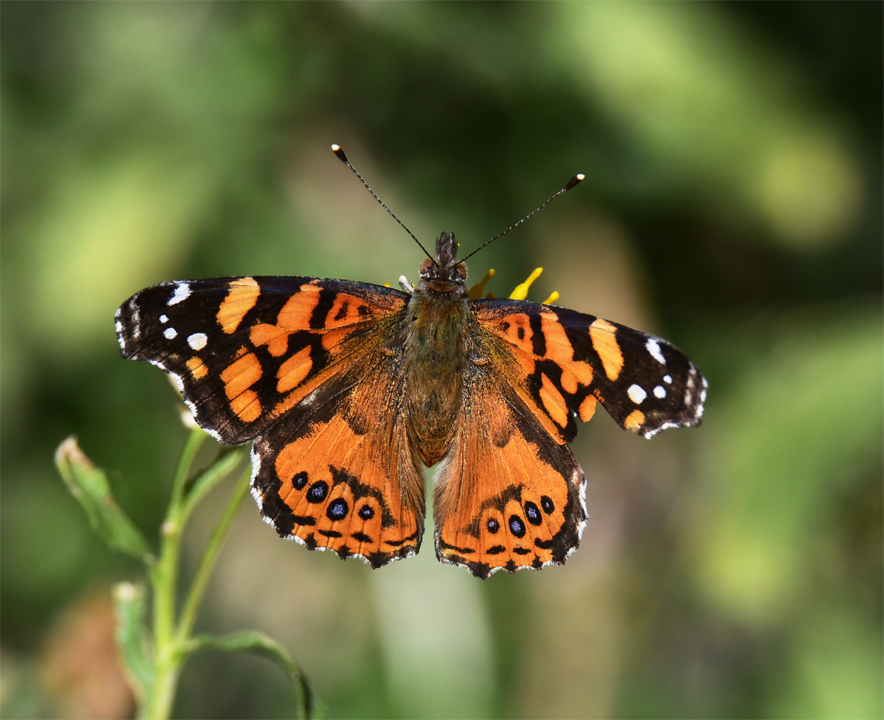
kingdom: Animalia
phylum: Arthropoda
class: Insecta
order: Lepidoptera
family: Nymphalidae
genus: Vanessa
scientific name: Vanessa annabella
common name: West coast lady
